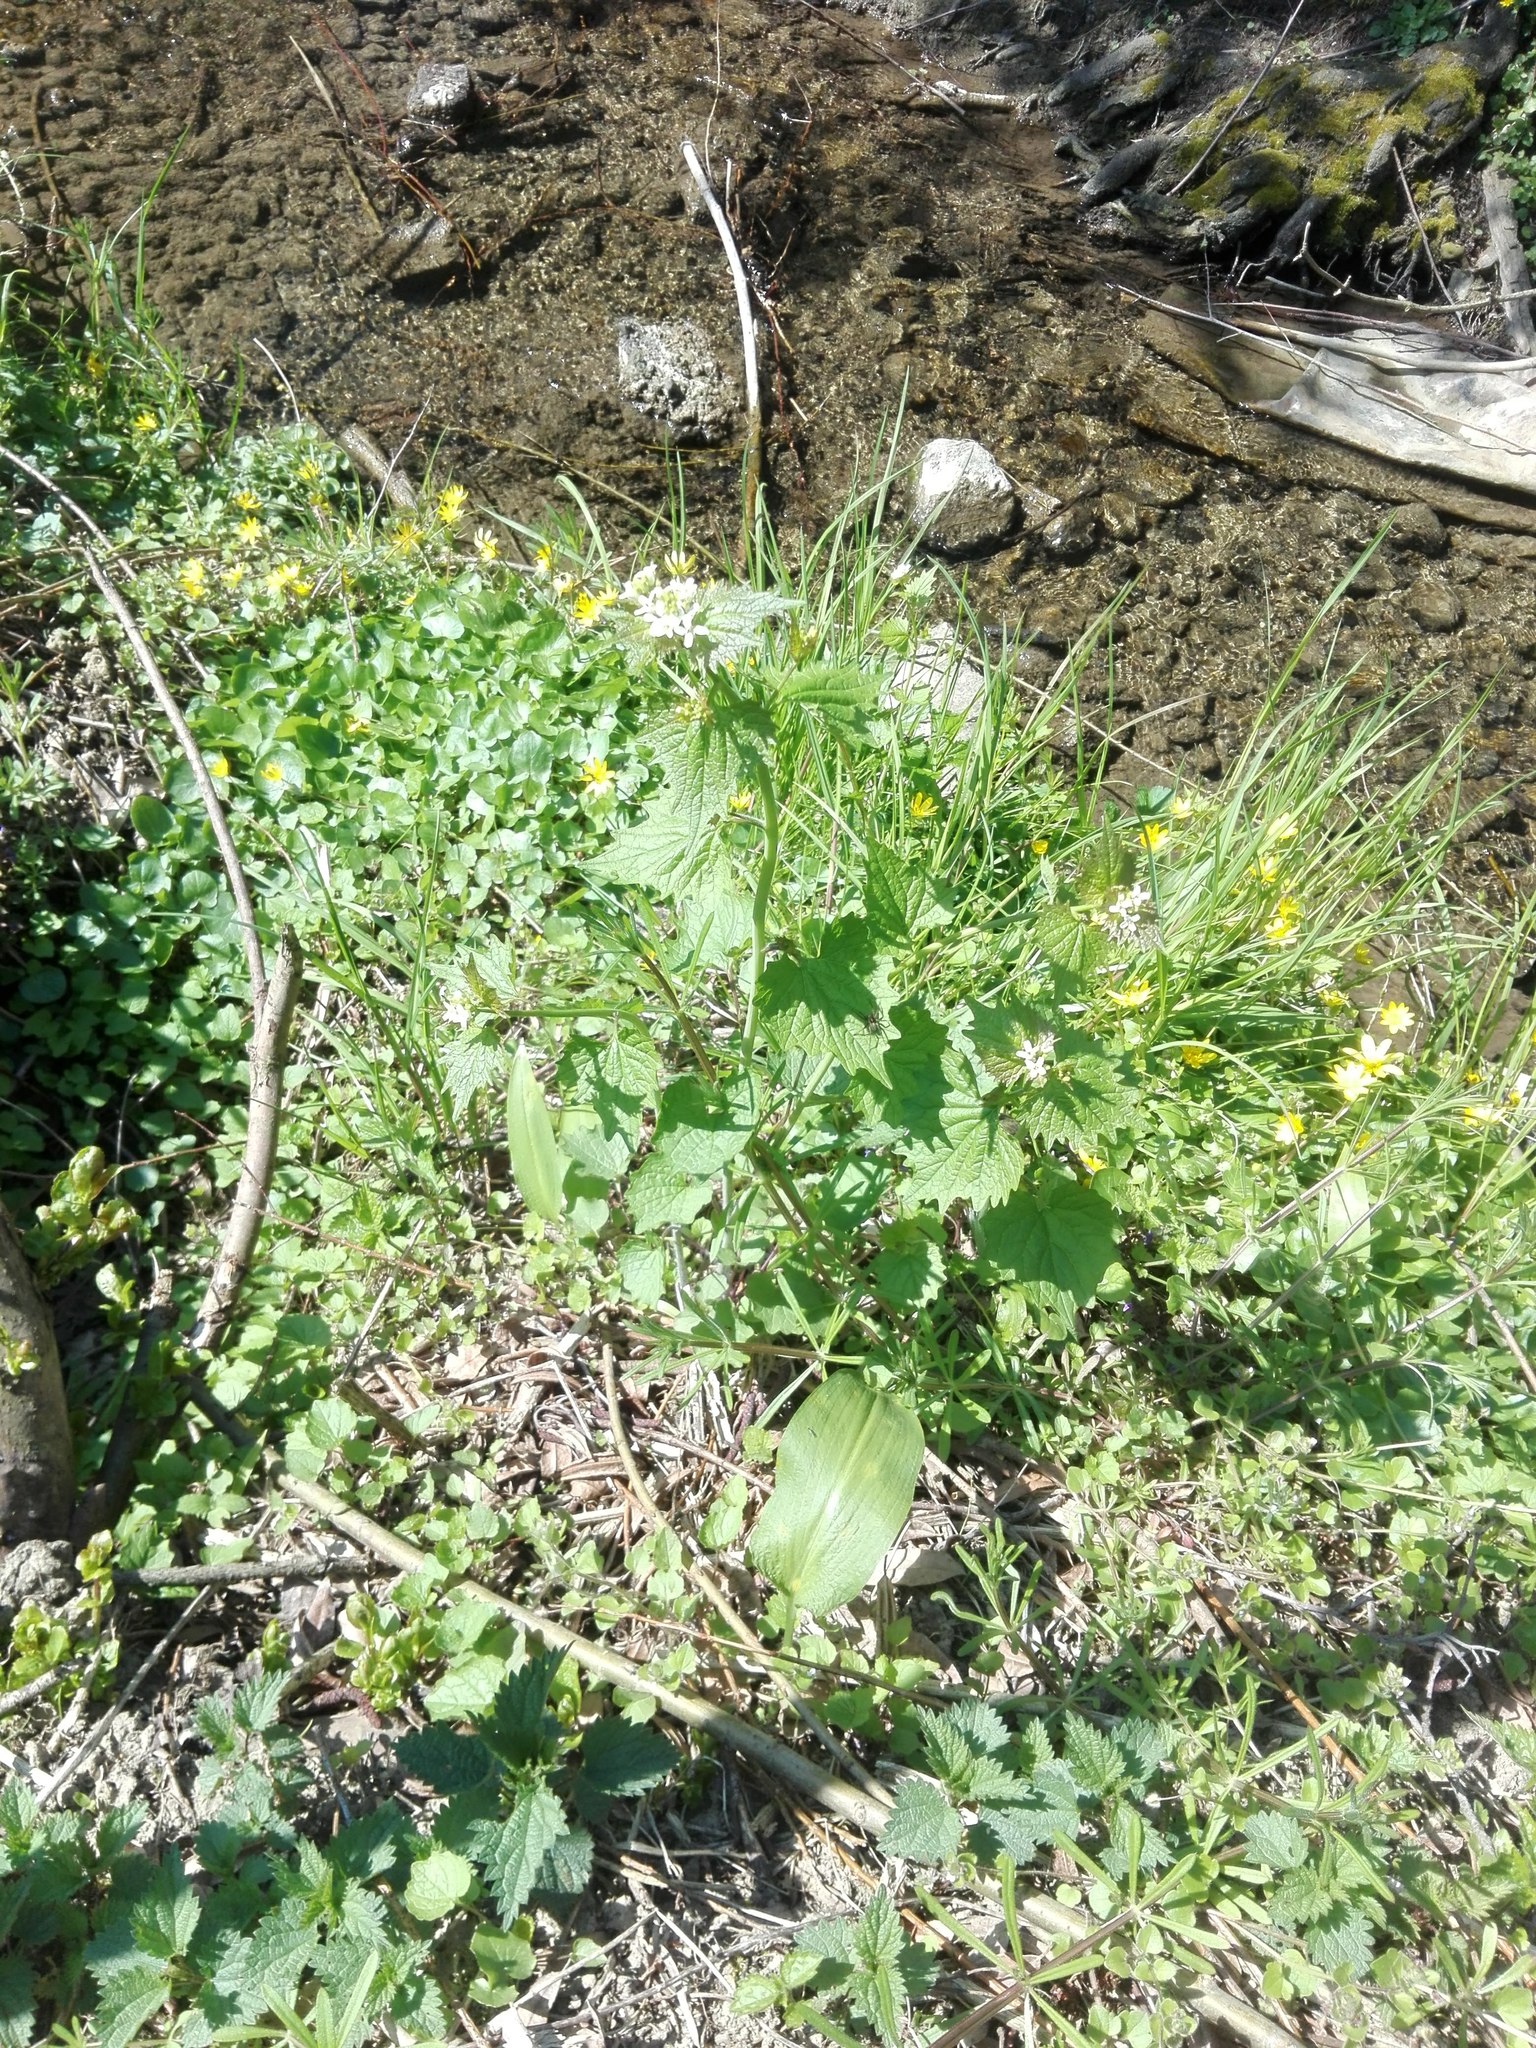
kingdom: Plantae
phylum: Tracheophyta
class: Magnoliopsida
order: Ranunculales
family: Ranunculaceae
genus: Ficaria
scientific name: Ficaria verna
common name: Lesser celandine
